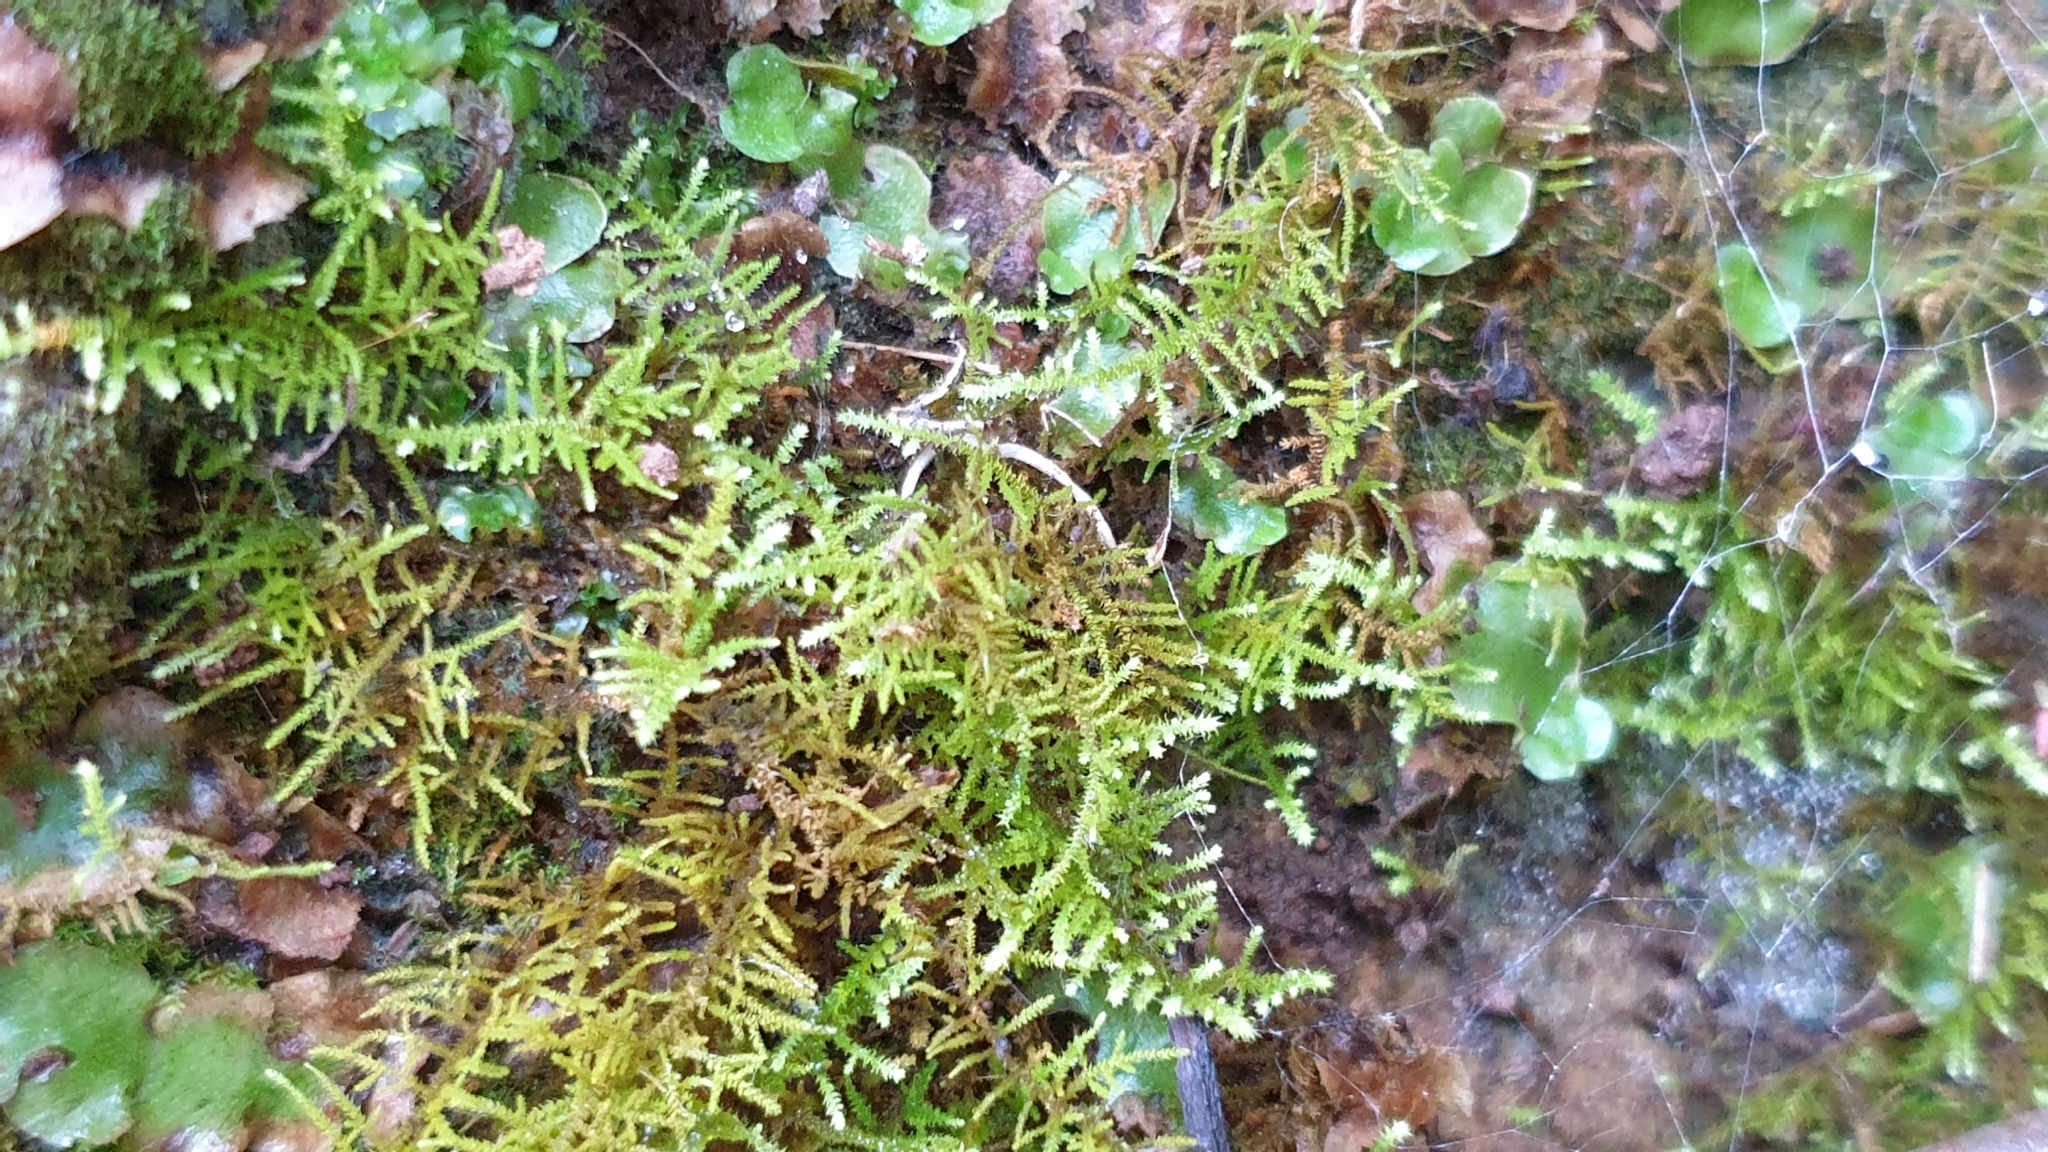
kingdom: Plantae
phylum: Bryophyta
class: Bryopsida
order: Hypnales
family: Thuidiaceae
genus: Thuidiopsis
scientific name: Thuidiopsis sparsa
